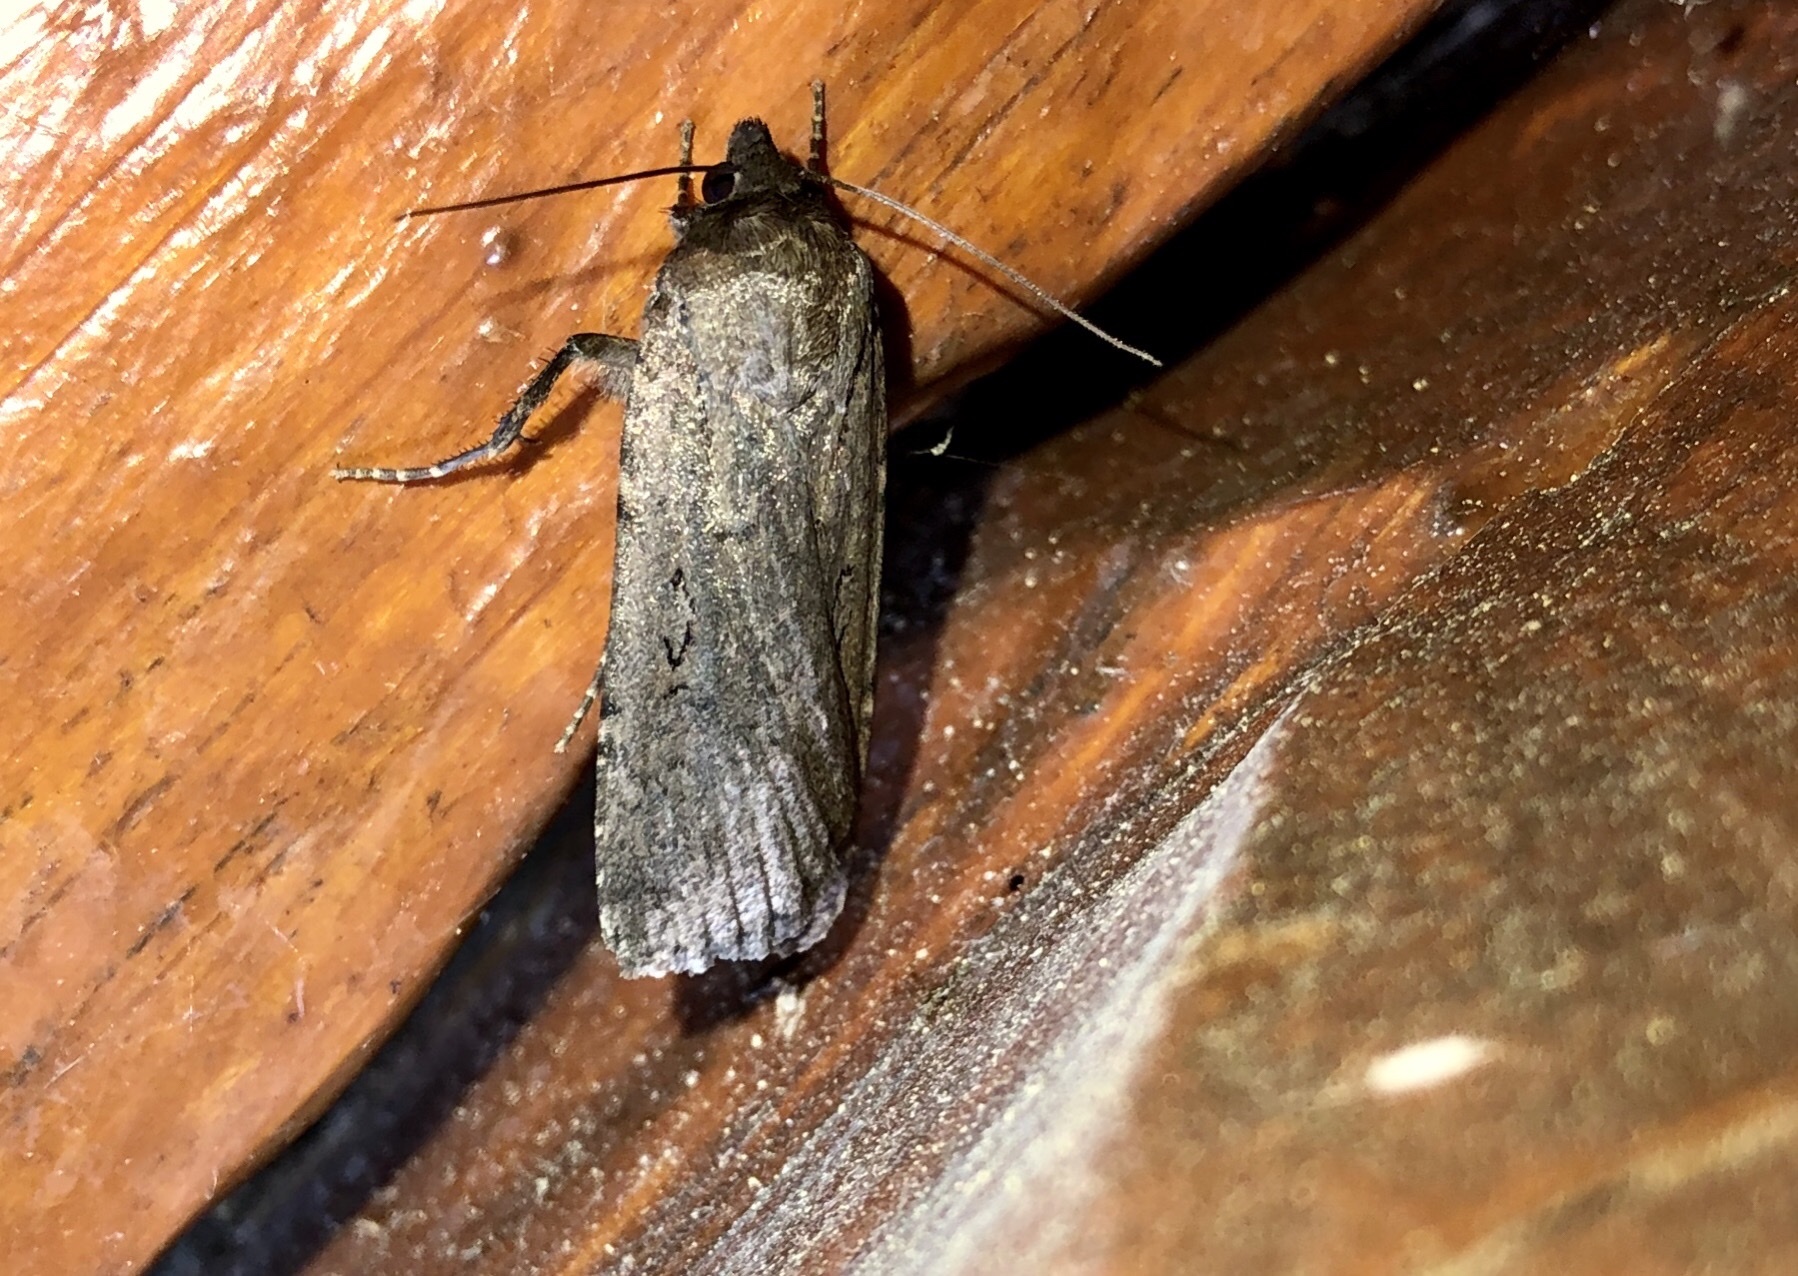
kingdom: Animalia
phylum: Arthropoda
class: Insecta
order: Lepidoptera
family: Noctuidae
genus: Spaelotis
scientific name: Spaelotis clandestina
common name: Clandestine dart
